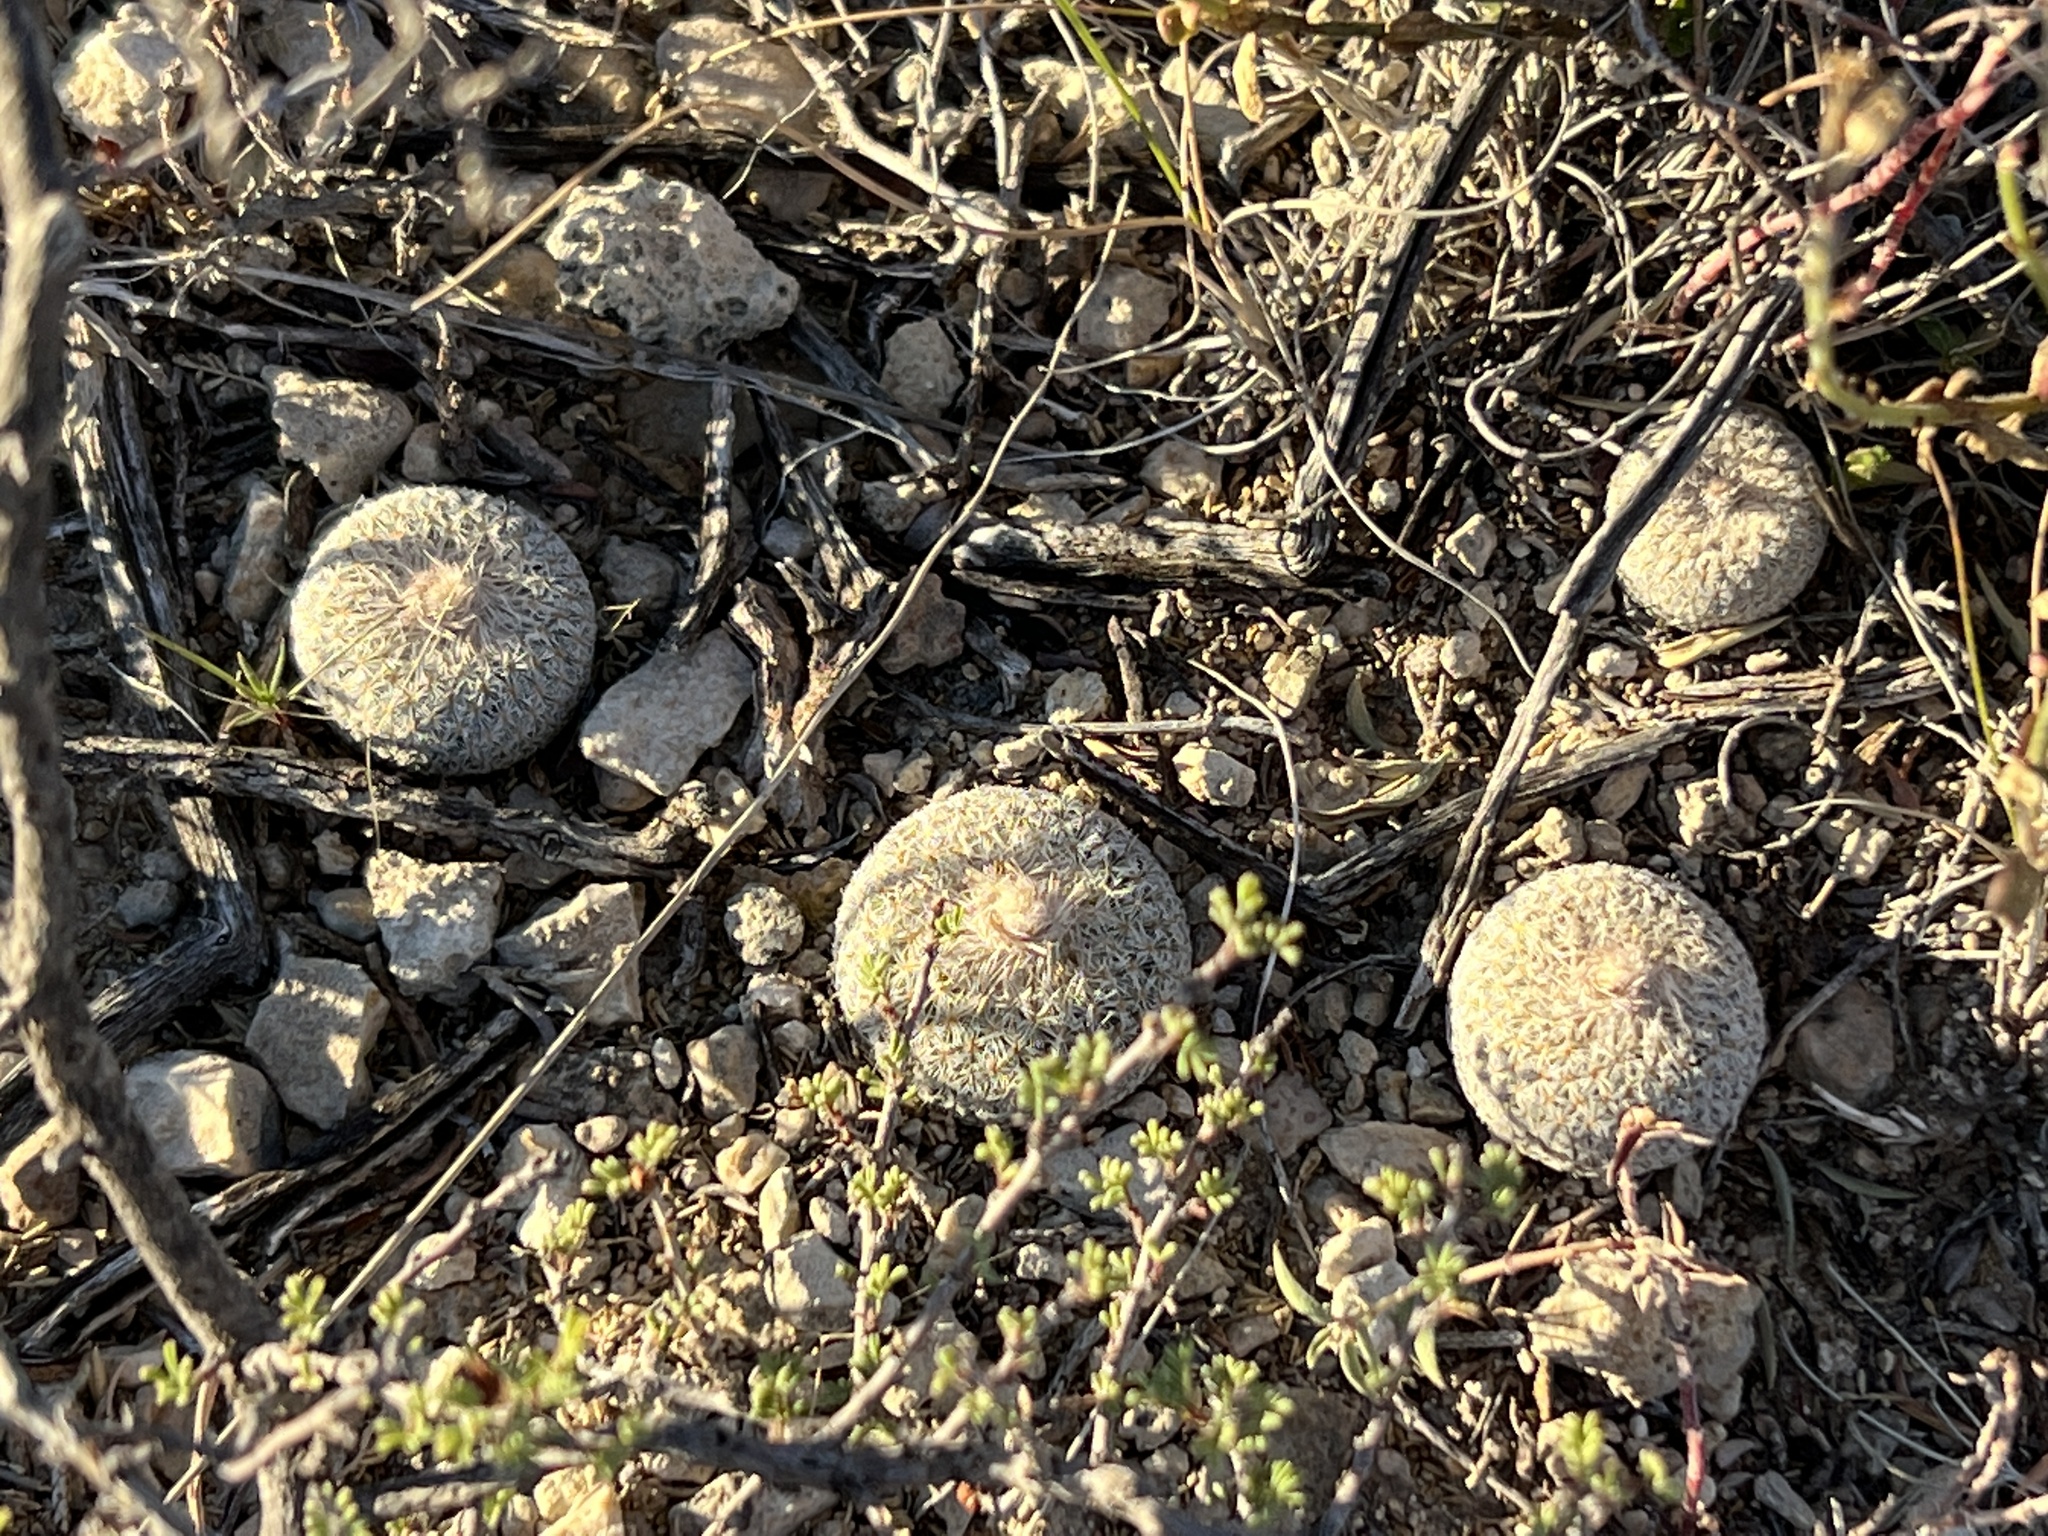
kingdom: Plantae
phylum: Tracheophyta
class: Magnoliopsida
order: Caryophyllales
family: Cactaceae
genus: Epithelantha
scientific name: Epithelantha micromeris
